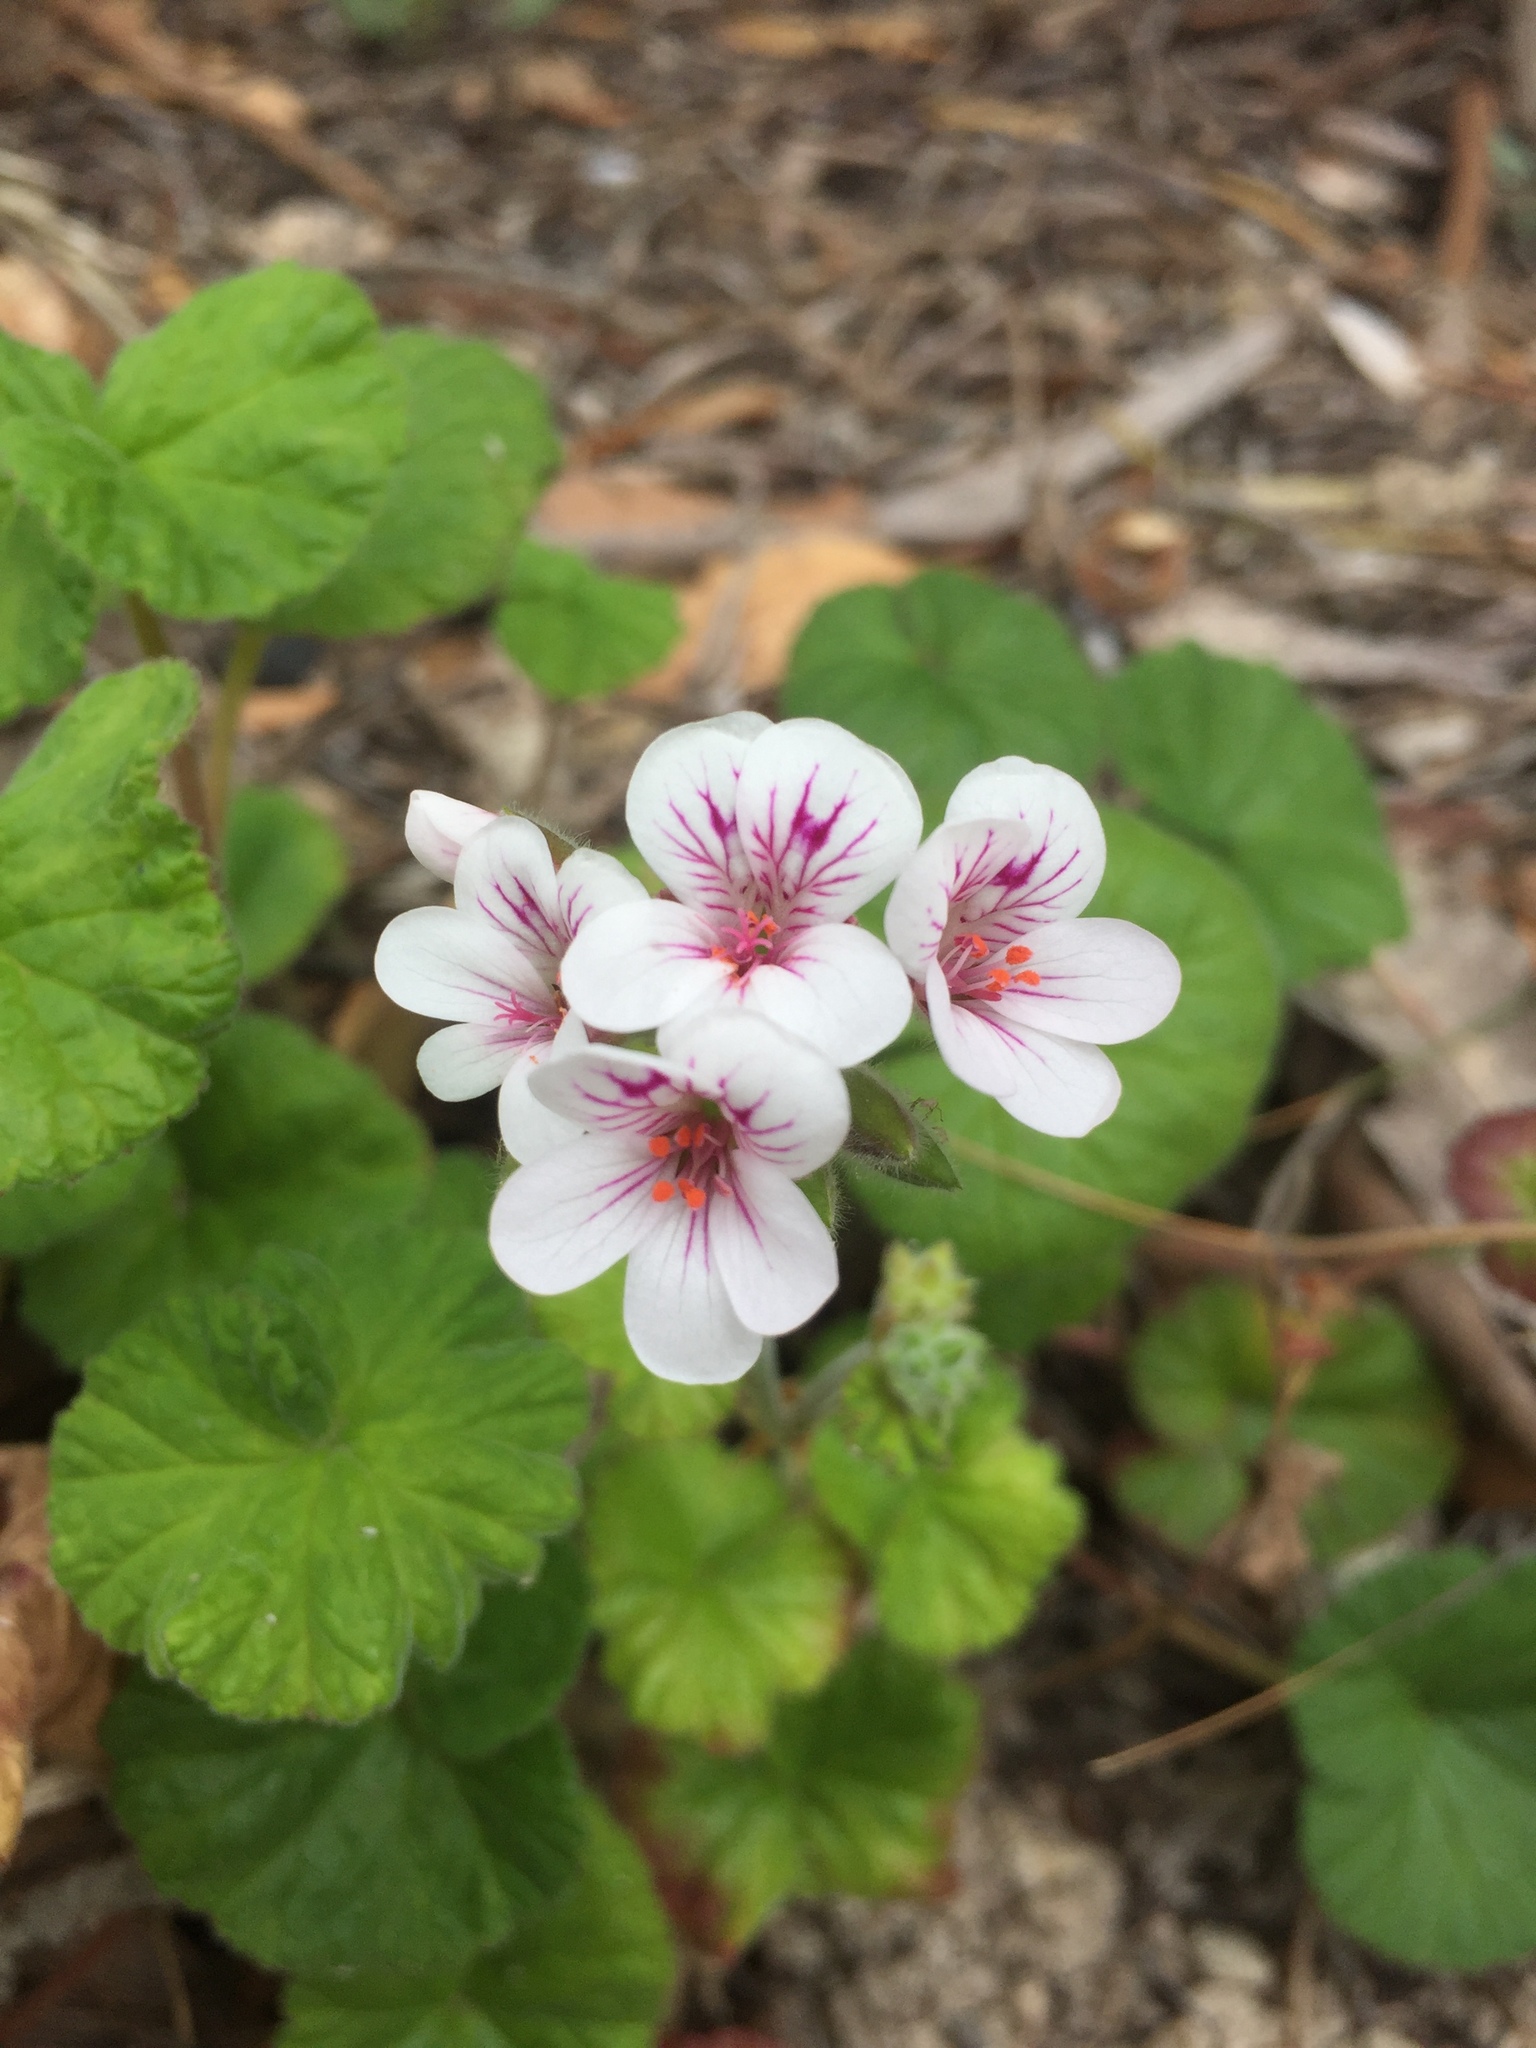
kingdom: Plantae
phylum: Tracheophyta
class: Magnoliopsida
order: Geraniales
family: Geraniaceae
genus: Pelargonium
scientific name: Pelargonium australe
